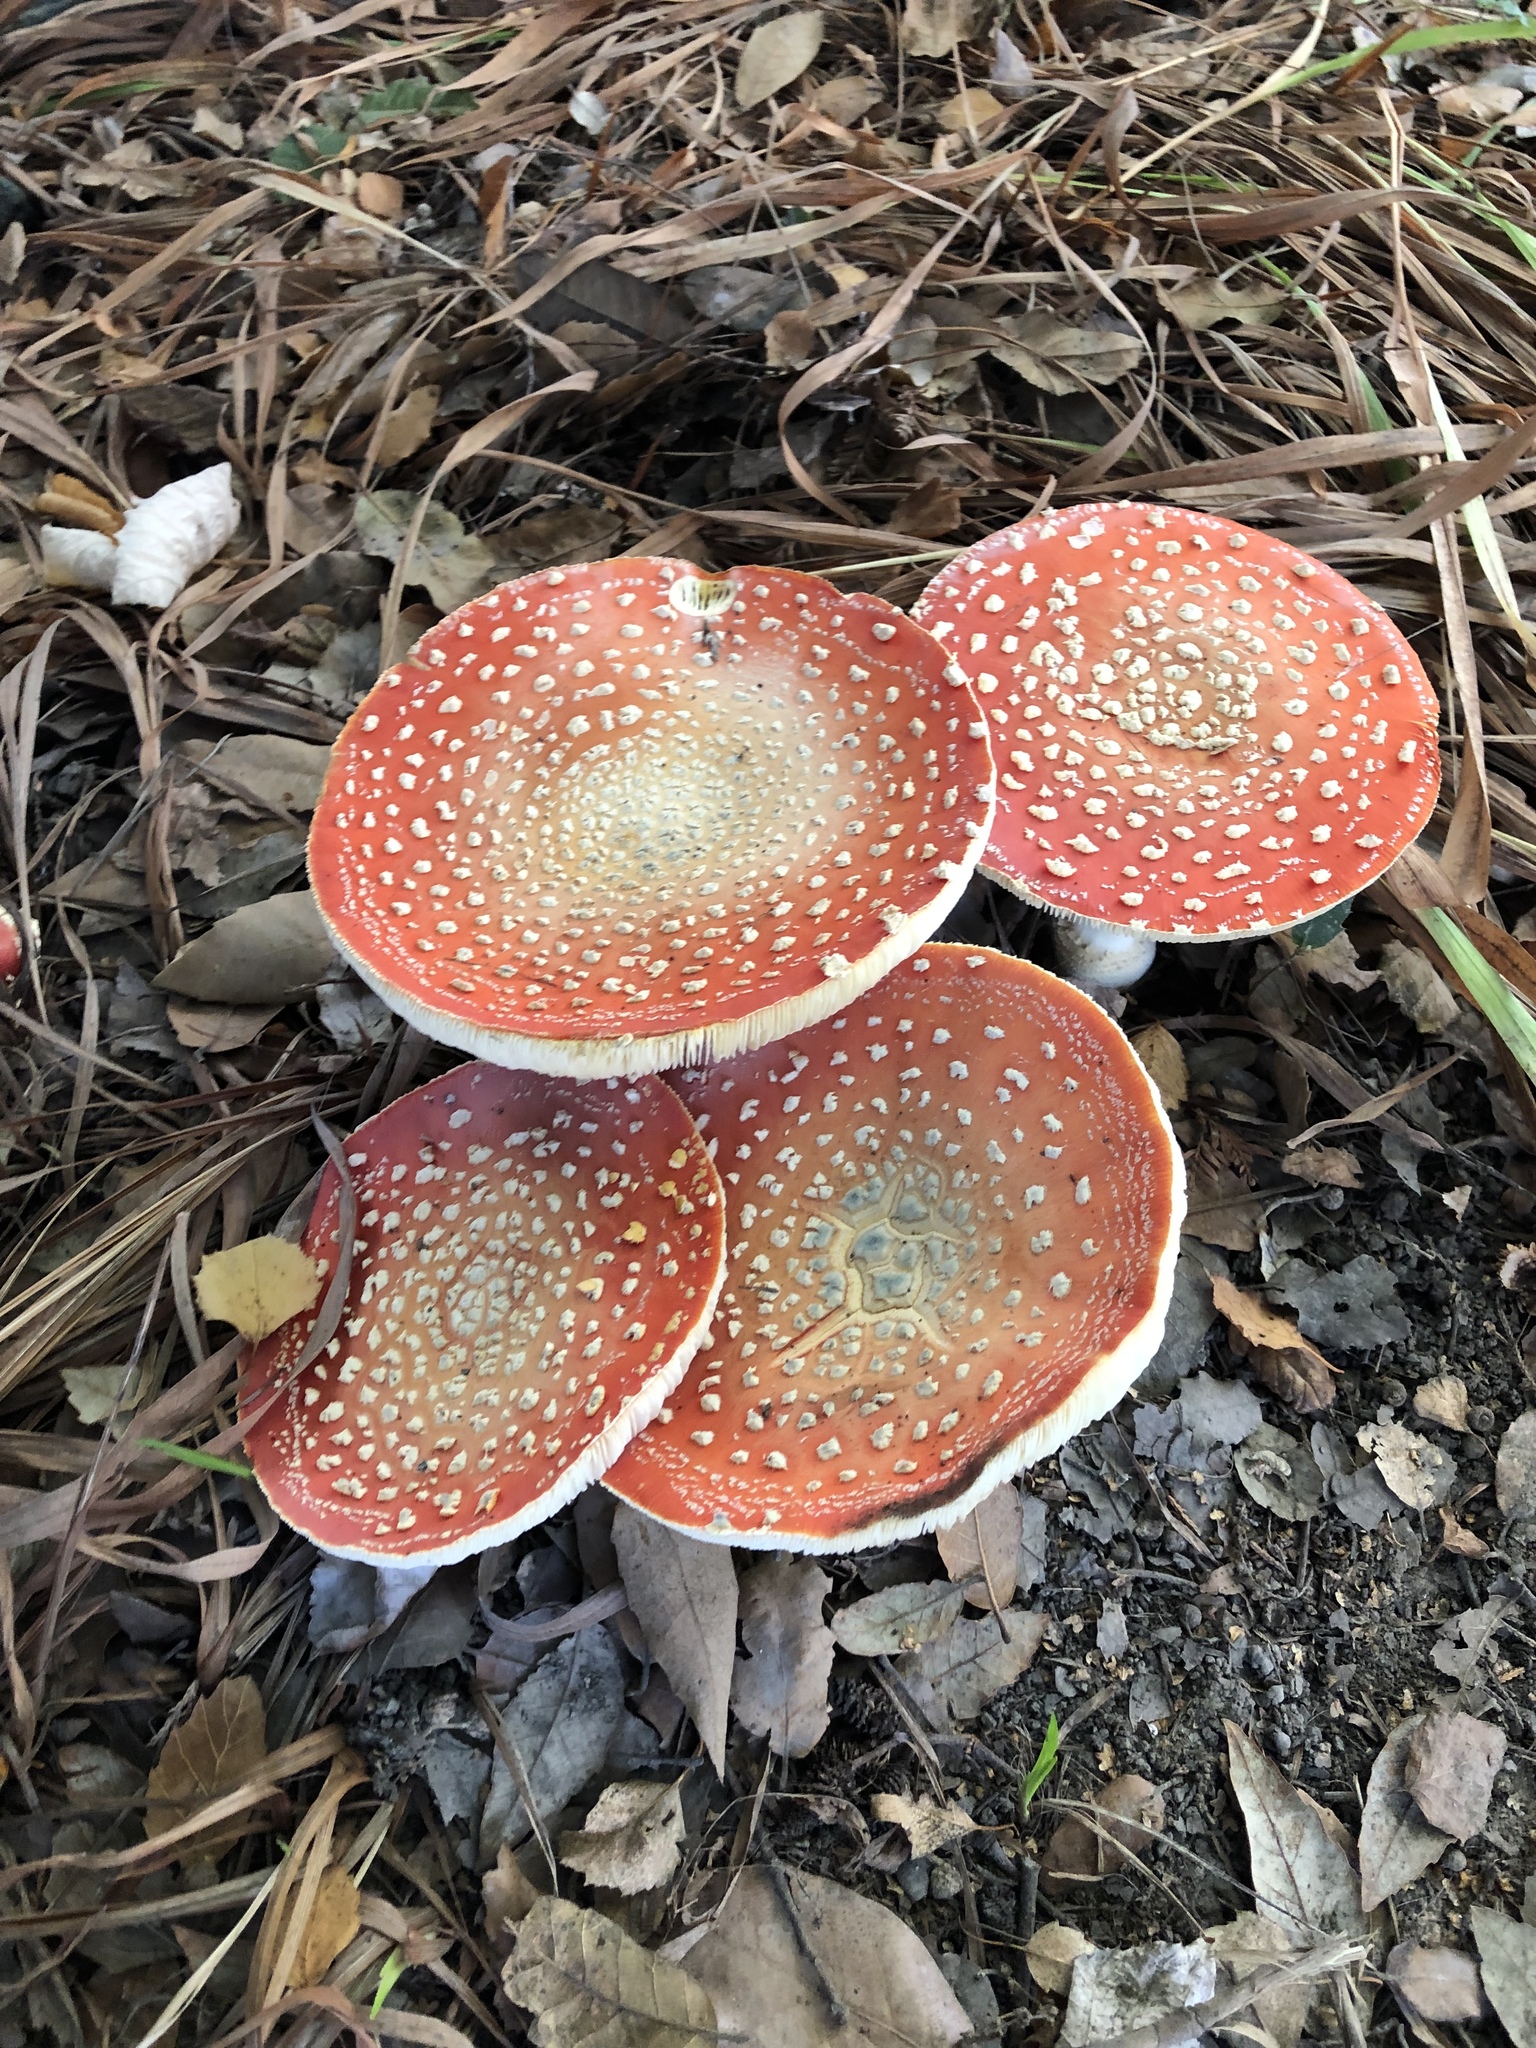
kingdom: Fungi
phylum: Basidiomycota
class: Agaricomycetes
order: Agaricales
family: Amanitaceae
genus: Amanita
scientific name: Amanita muscaria
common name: Fly agaric
